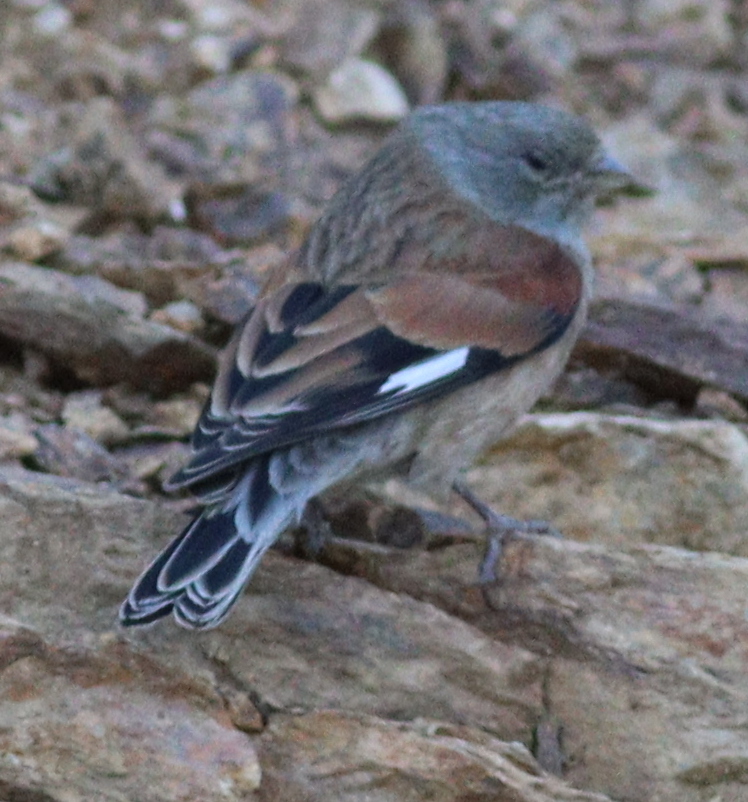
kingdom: Animalia
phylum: Chordata
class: Aves
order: Passeriformes
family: Fringillidae
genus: Linaria
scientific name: Linaria yemenensis
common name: Yemen linnet
